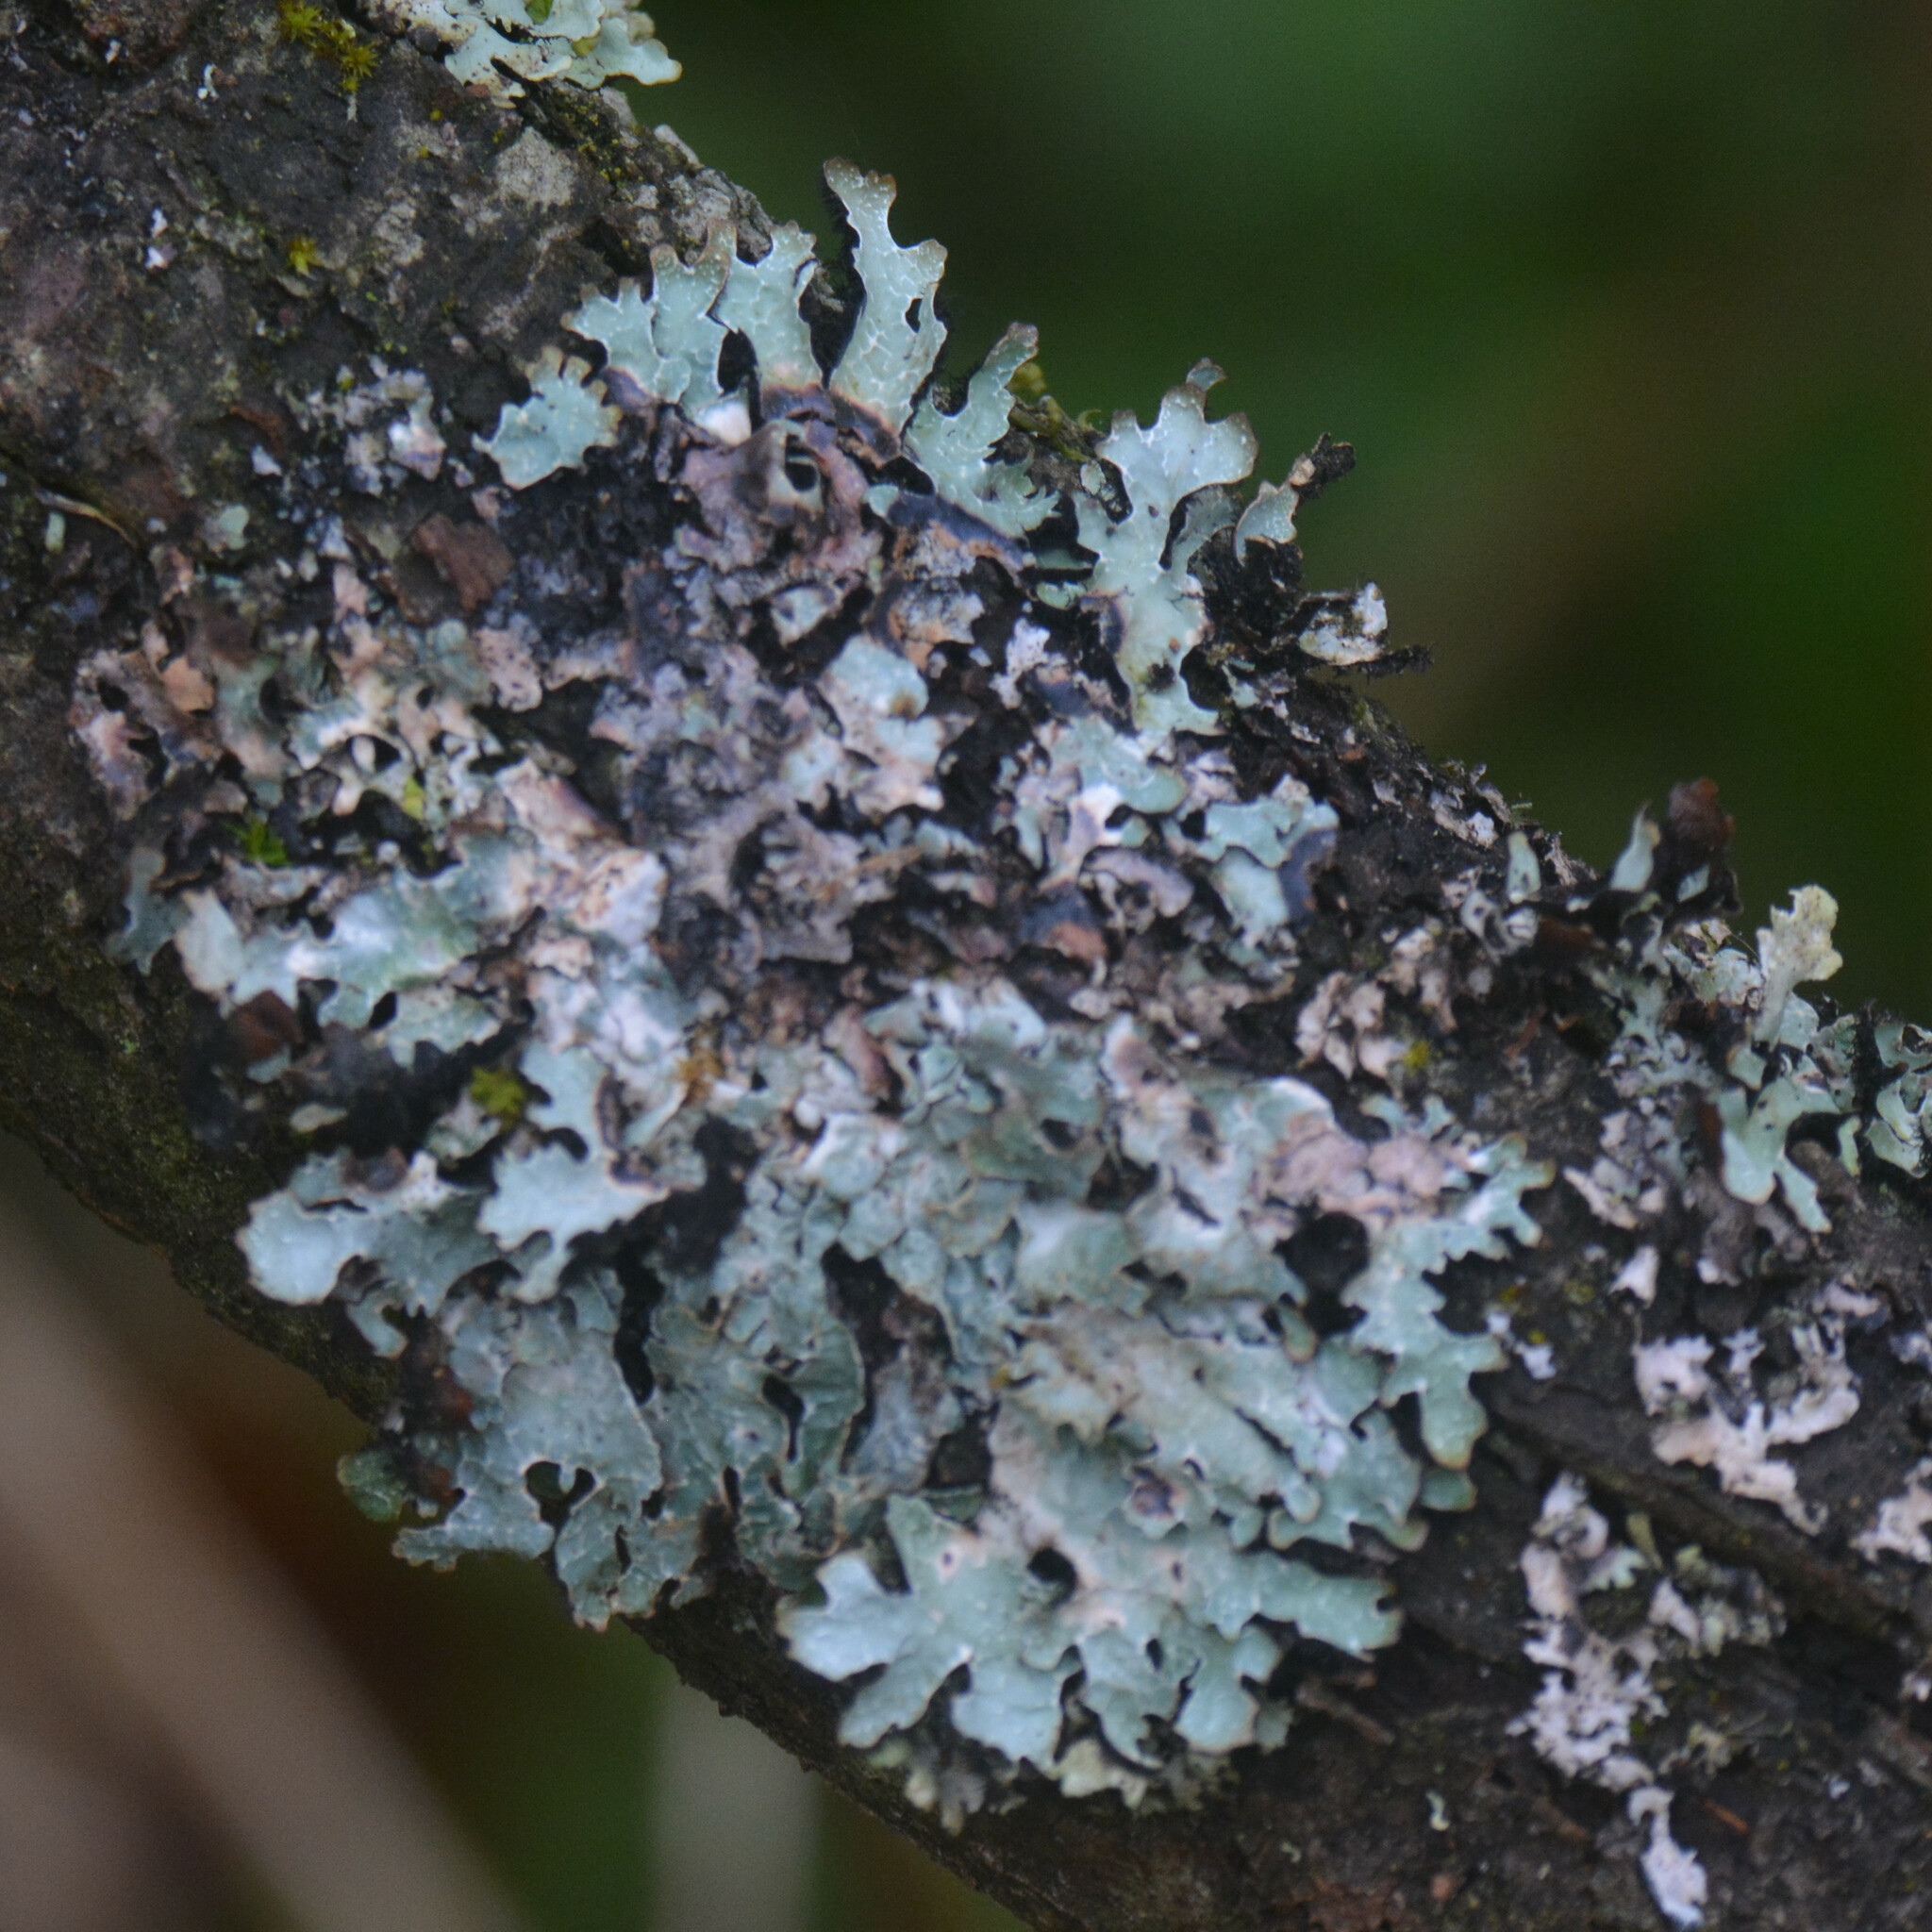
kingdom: Fungi
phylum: Ascomycota
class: Lecanoromycetes
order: Lecanorales
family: Parmeliaceae
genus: Parmelia
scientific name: Parmelia sulcata
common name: Netted shield lichen
